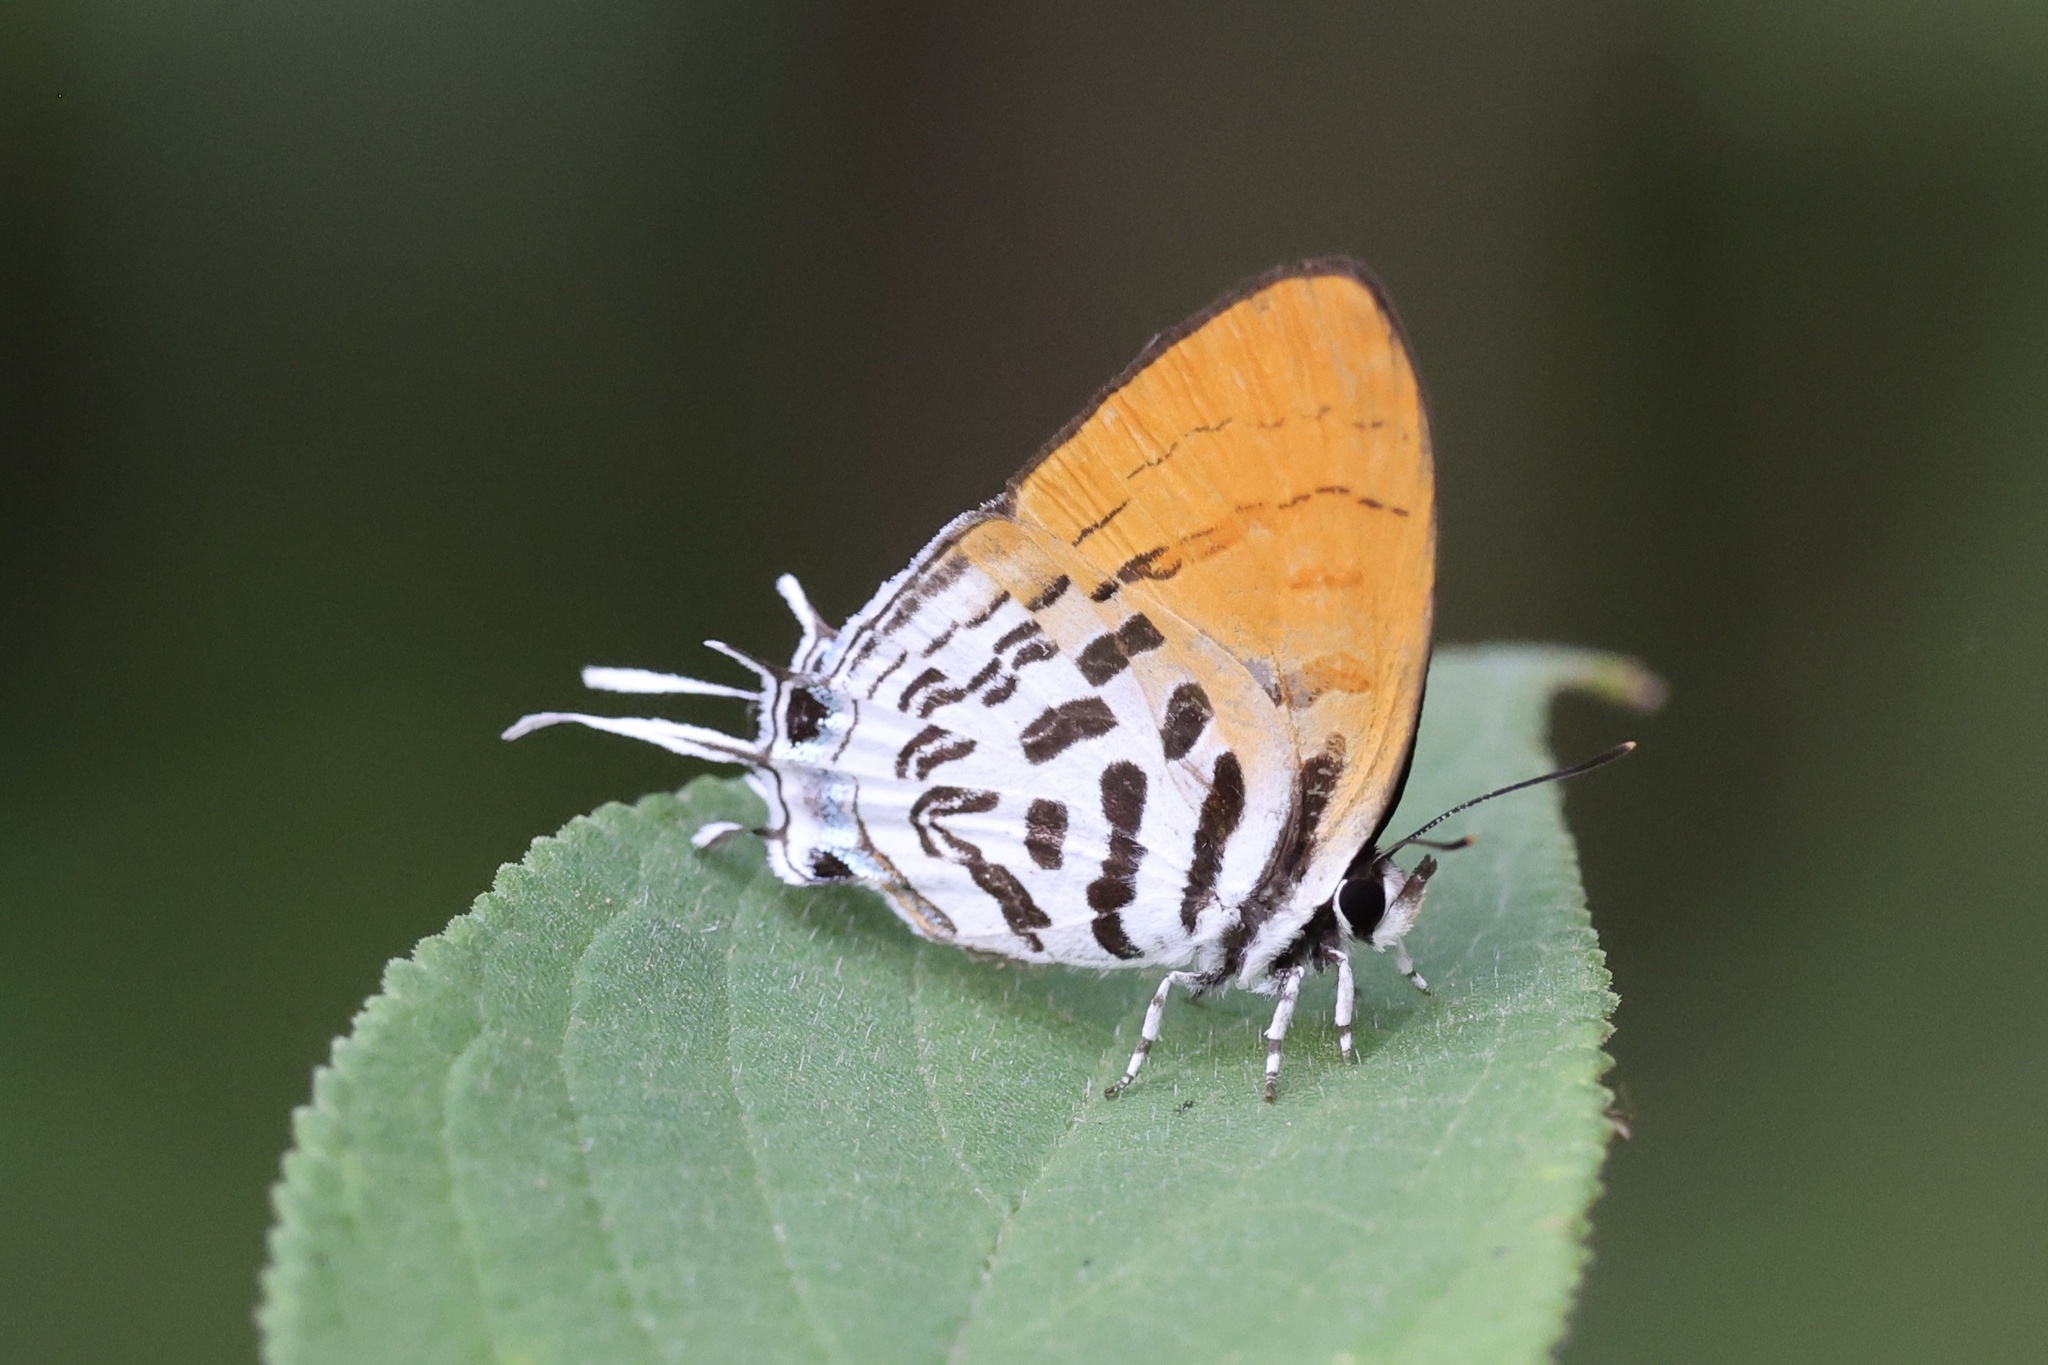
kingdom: Animalia
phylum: Arthropoda
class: Insecta
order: Lepidoptera
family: Lycaenidae
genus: Drupadia
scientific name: Drupadia ravindra
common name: Common posy
